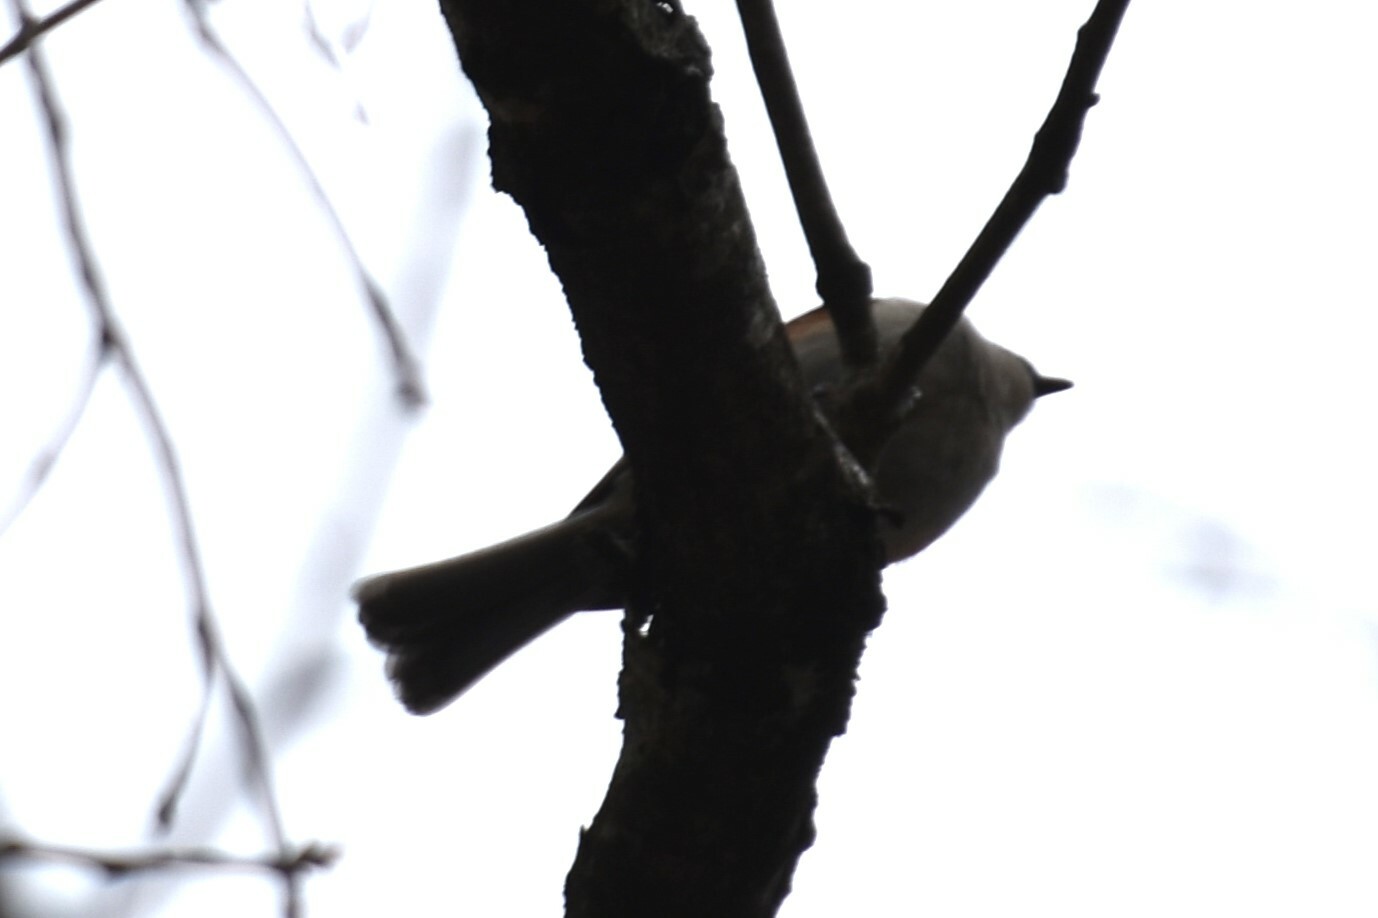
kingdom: Animalia
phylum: Chordata
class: Aves
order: Passeriformes
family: Paridae
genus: Baeolophus
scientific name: Baeolophus bicolor
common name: Tufted titmouse
